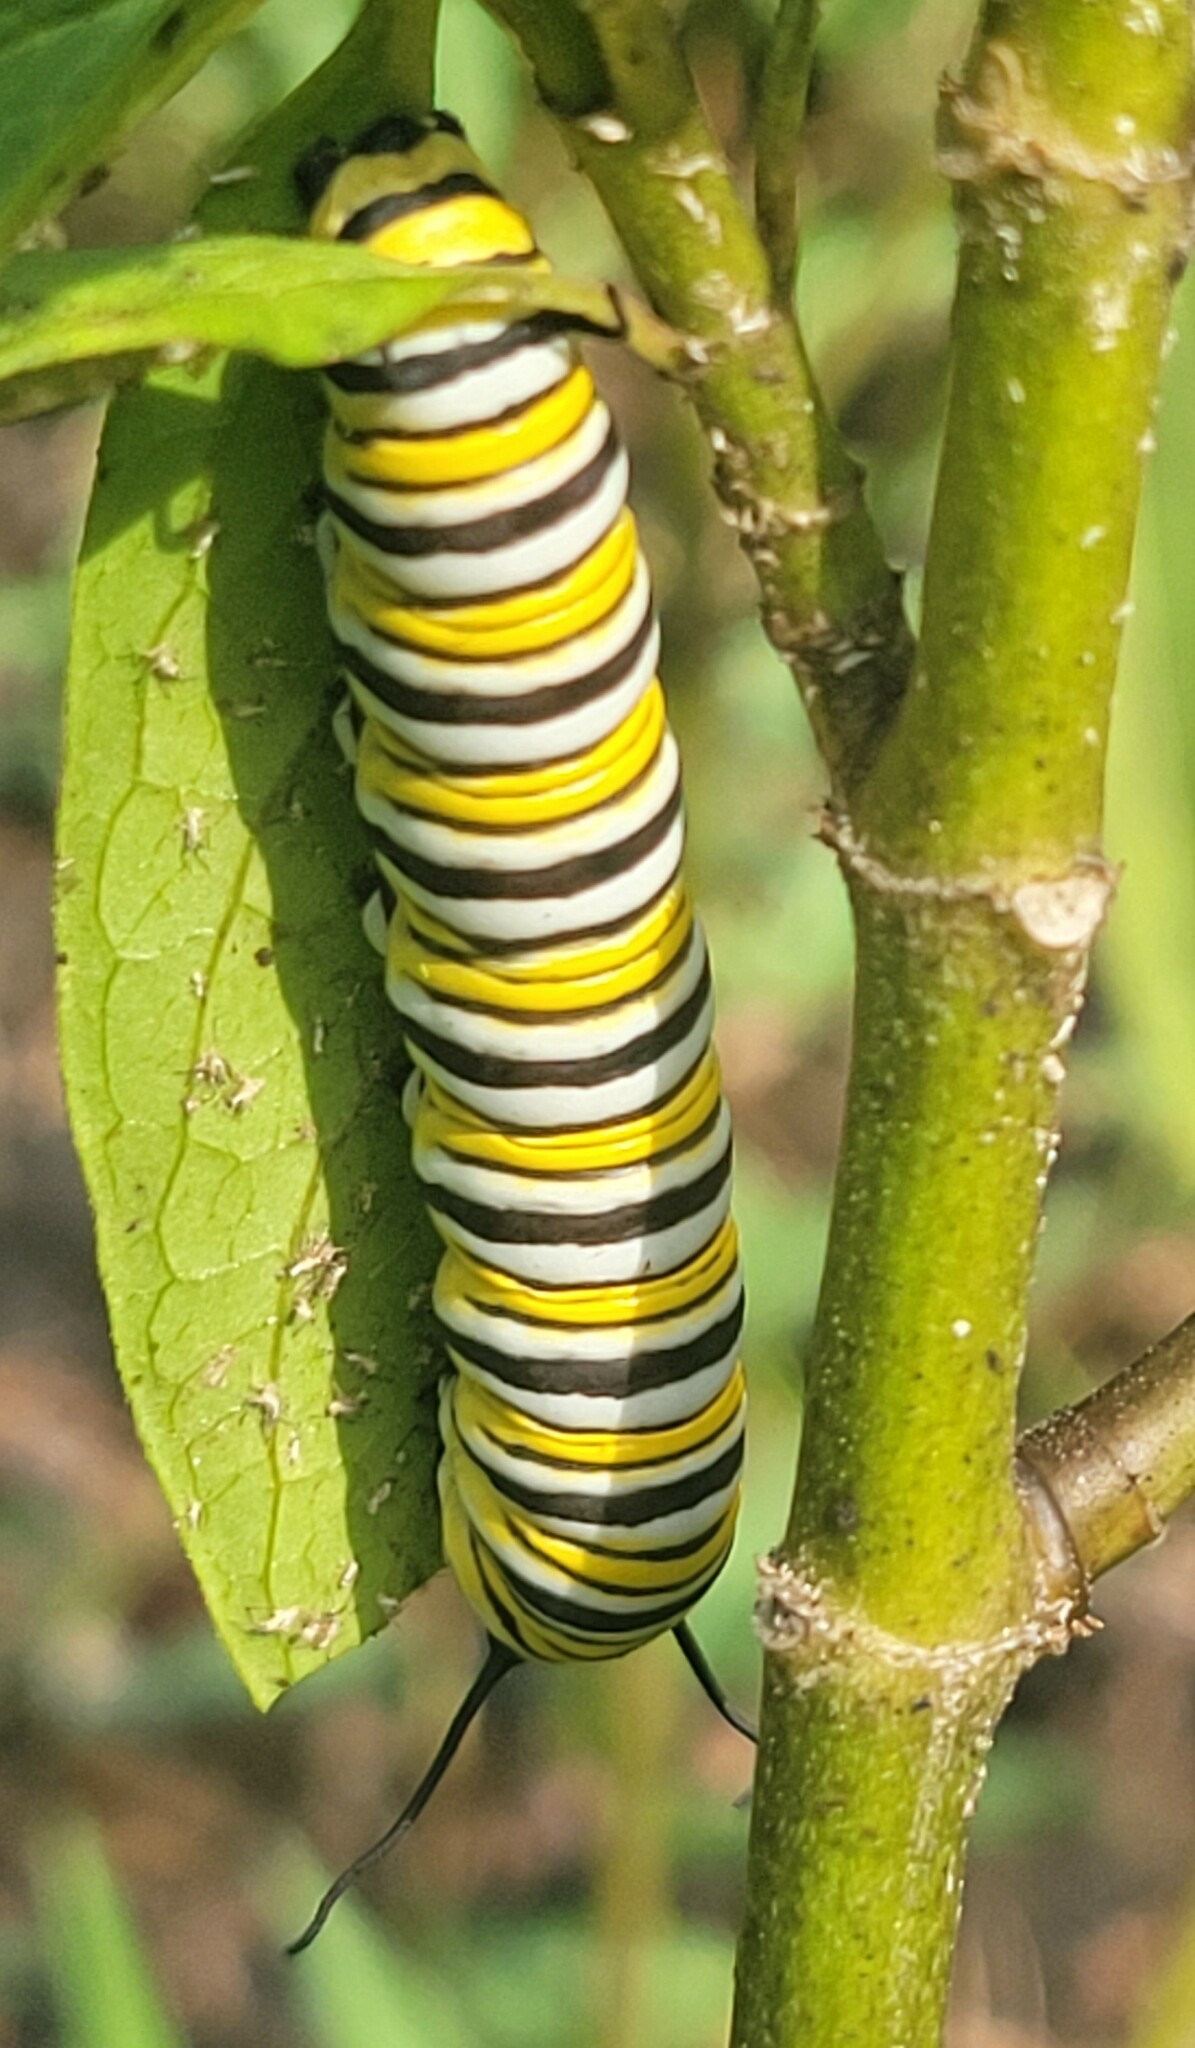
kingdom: Animalia
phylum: Arthropoda
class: Insecta
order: Lepidoptera
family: Nymphalidae
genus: Danaus
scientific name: Danaus plexippus
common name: Monarch
